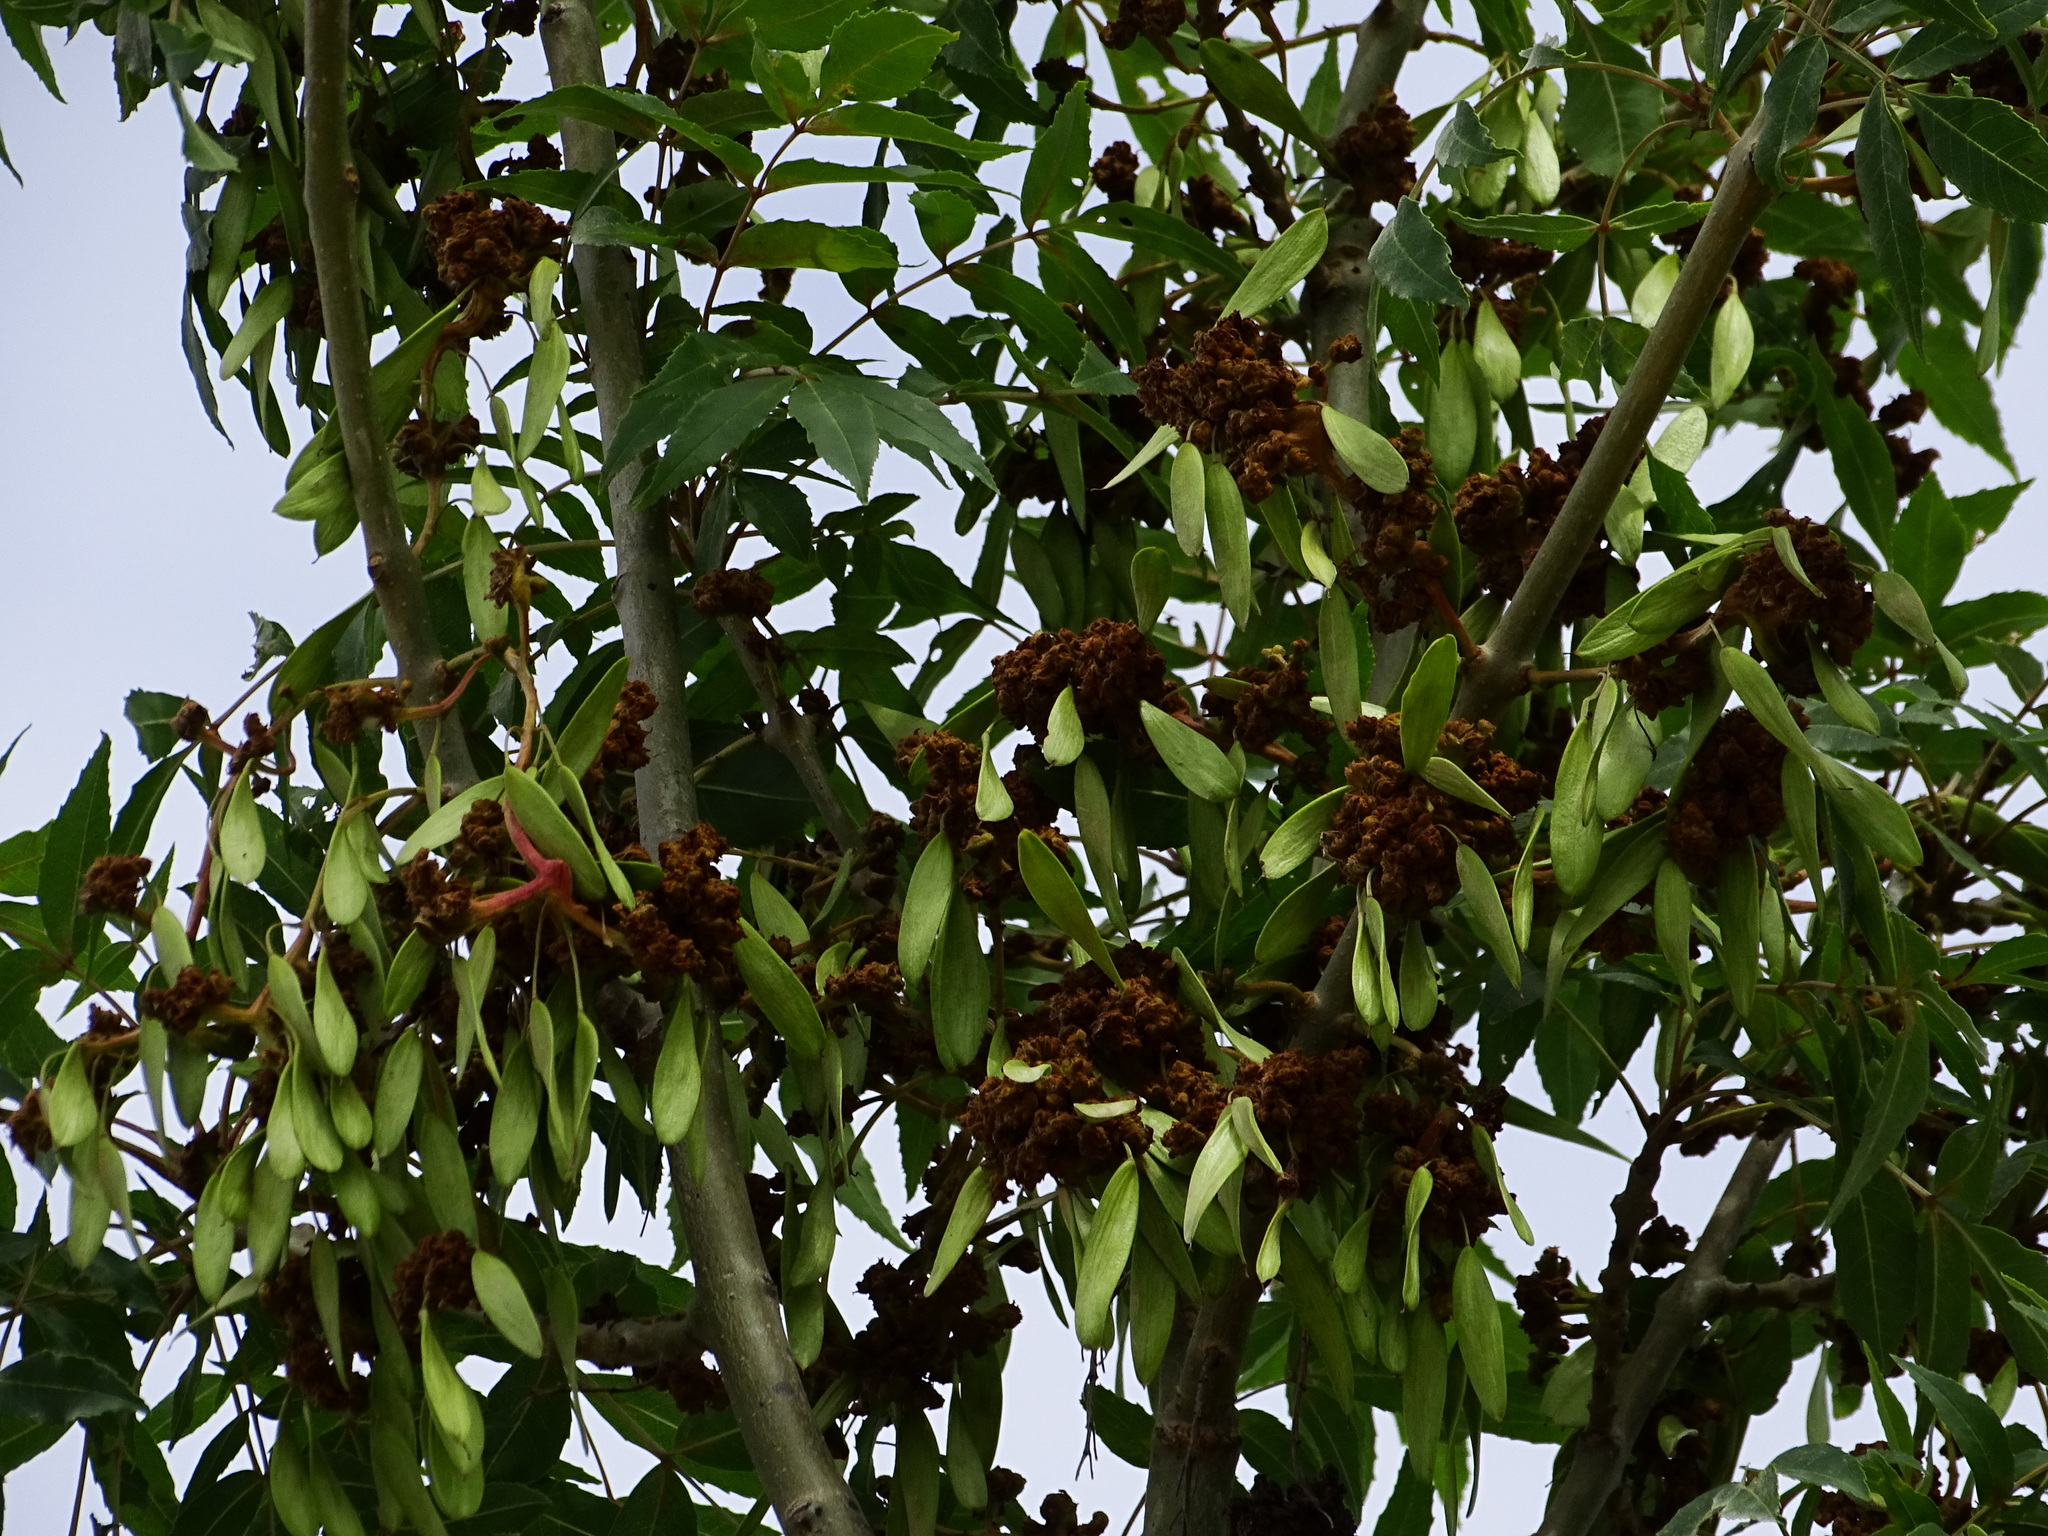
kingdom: Plantae
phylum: Tracheophyta
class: Magnoliopsida
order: Lamiales
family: Oleaceae
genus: Fraxinus
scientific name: Fraxinus angustifolia
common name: Narrow-leafed ash
